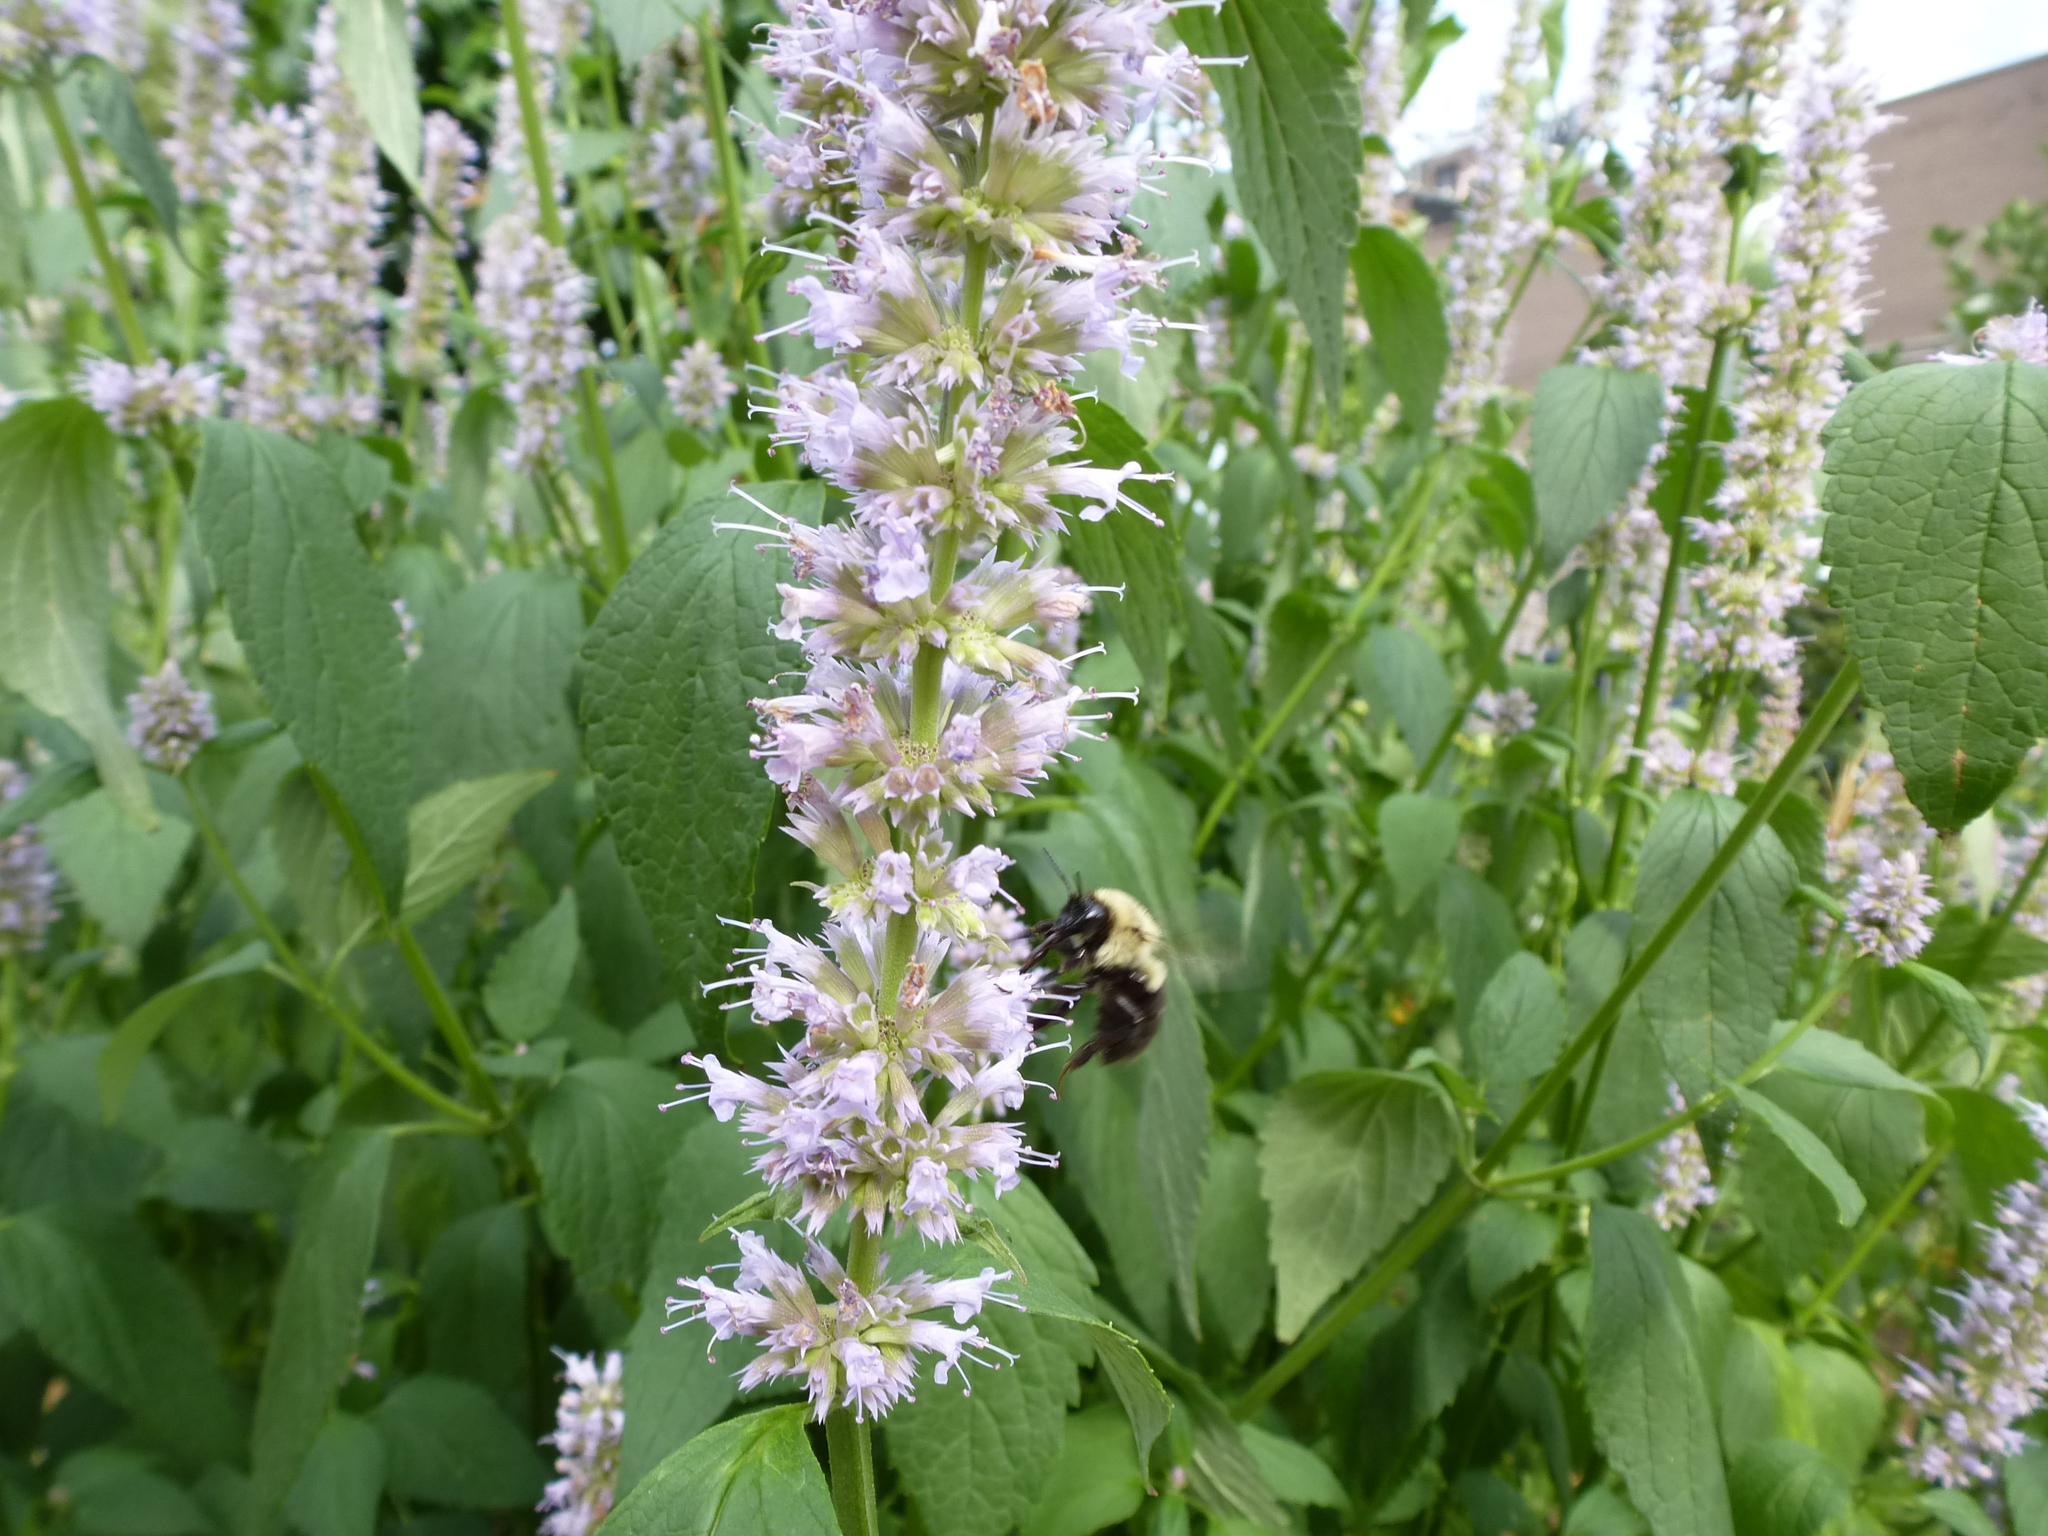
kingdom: Animalia
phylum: Arthropoda
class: Insecta
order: Hymenoptera
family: Apidae
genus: Bombus
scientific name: Bombus impatiens
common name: Common eastern bumble bee
